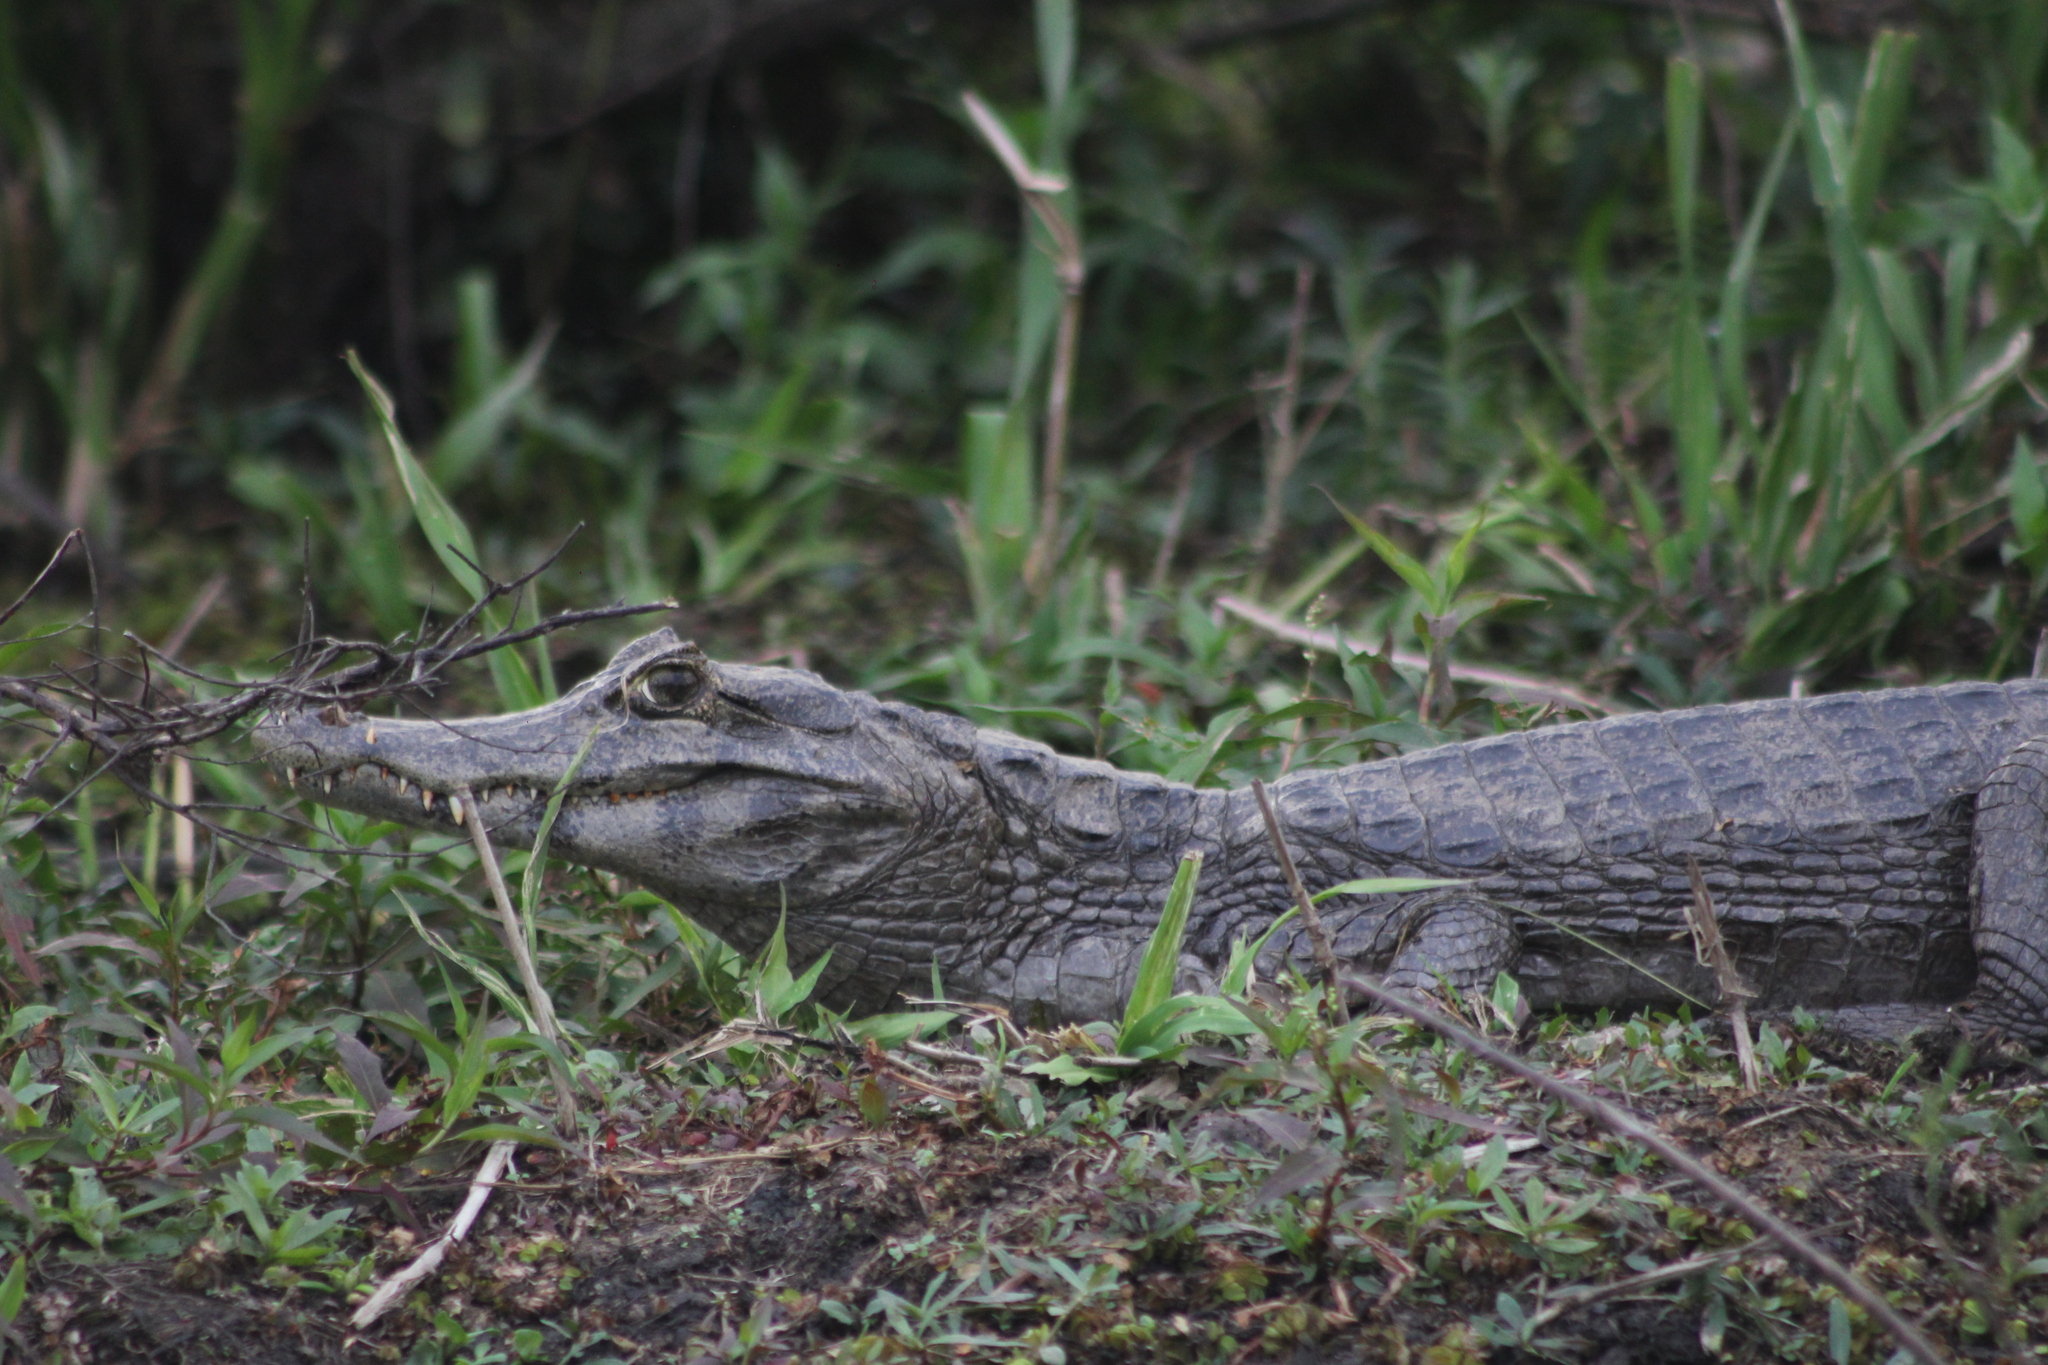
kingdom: Animalia
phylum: Chordata
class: Crocodylia
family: Alligatoridae
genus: Caiman
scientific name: Caiman yacare
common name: Yacare caiman
